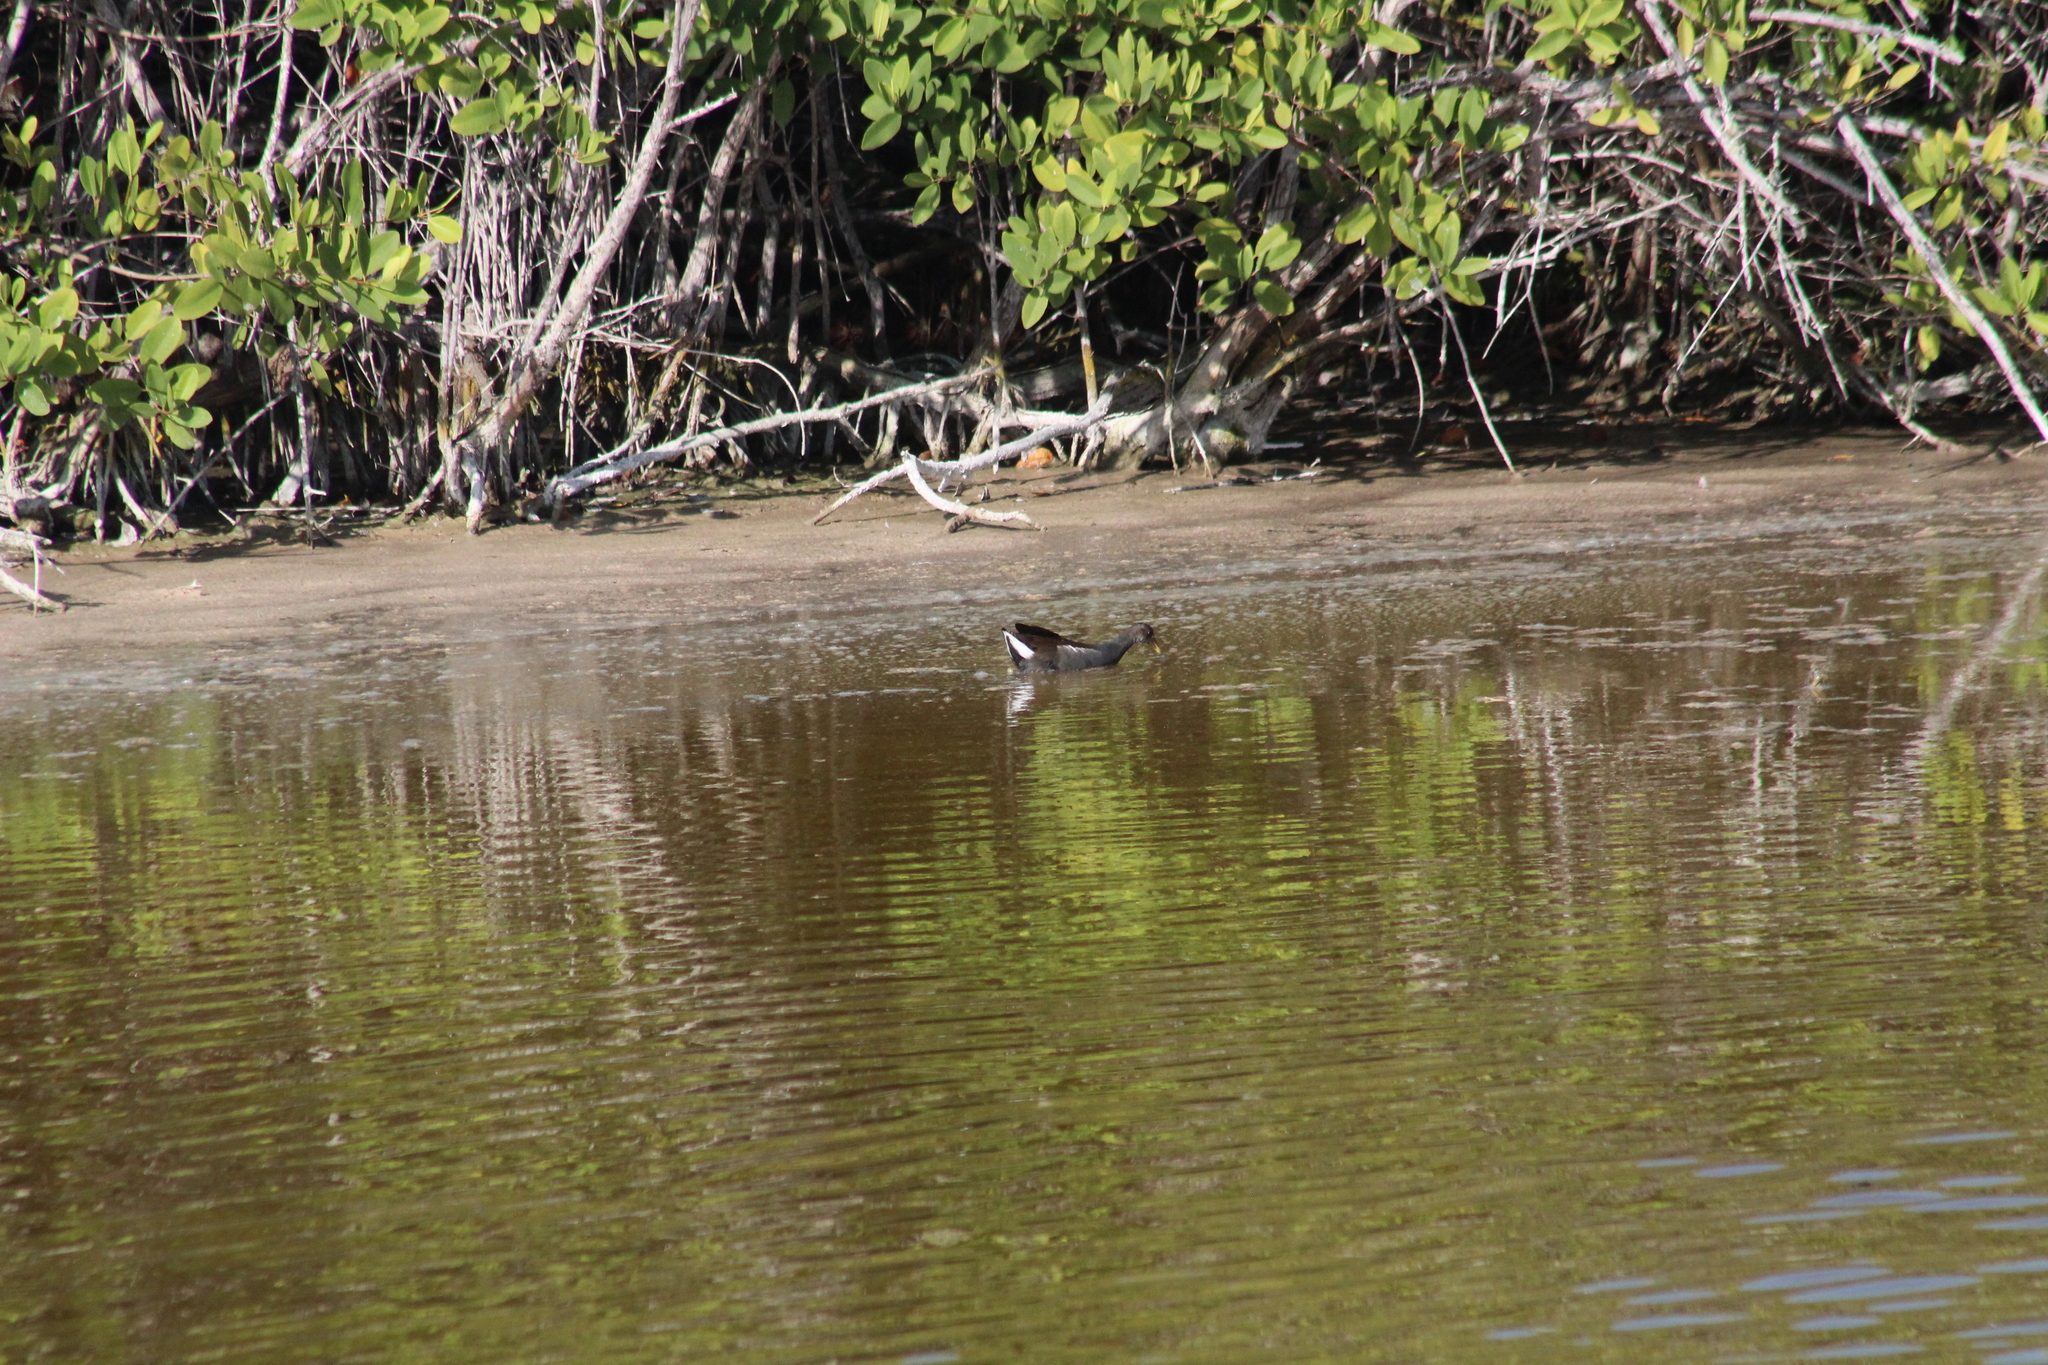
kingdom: Animalia
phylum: Chordata
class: Aves
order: Gruiformes
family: Rallidae
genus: Gallinula
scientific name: Gallinula chloropus
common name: Common moorhen
